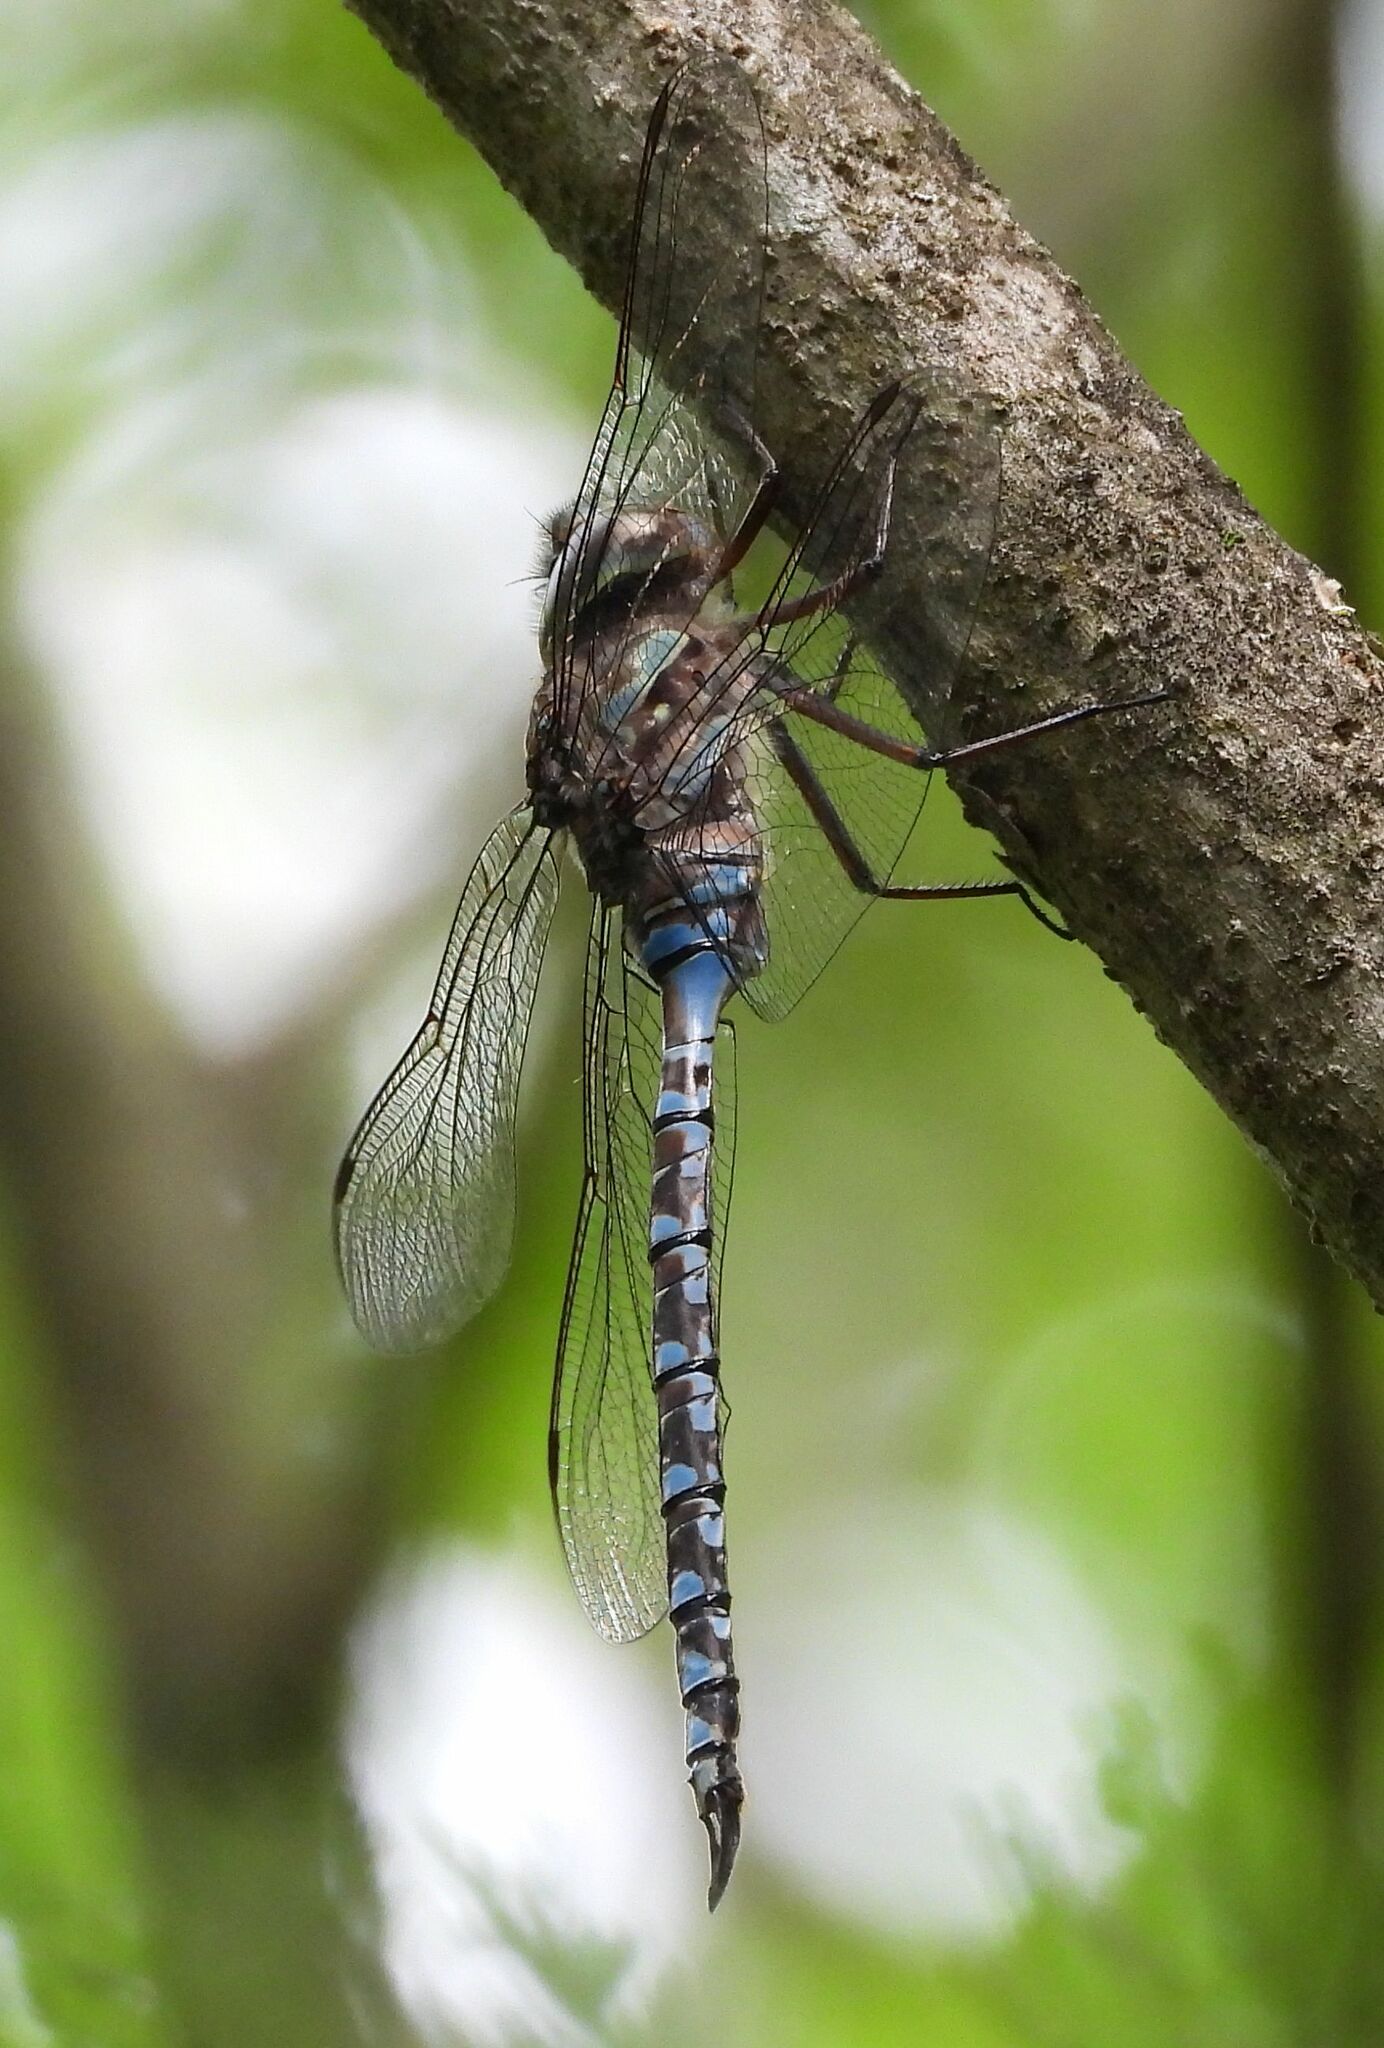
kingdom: Animalia
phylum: Arthropoda
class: Insecta
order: Odonata
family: Aeshnidae
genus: Aeshna
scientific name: Aeshna canadensis
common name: Canada darner
